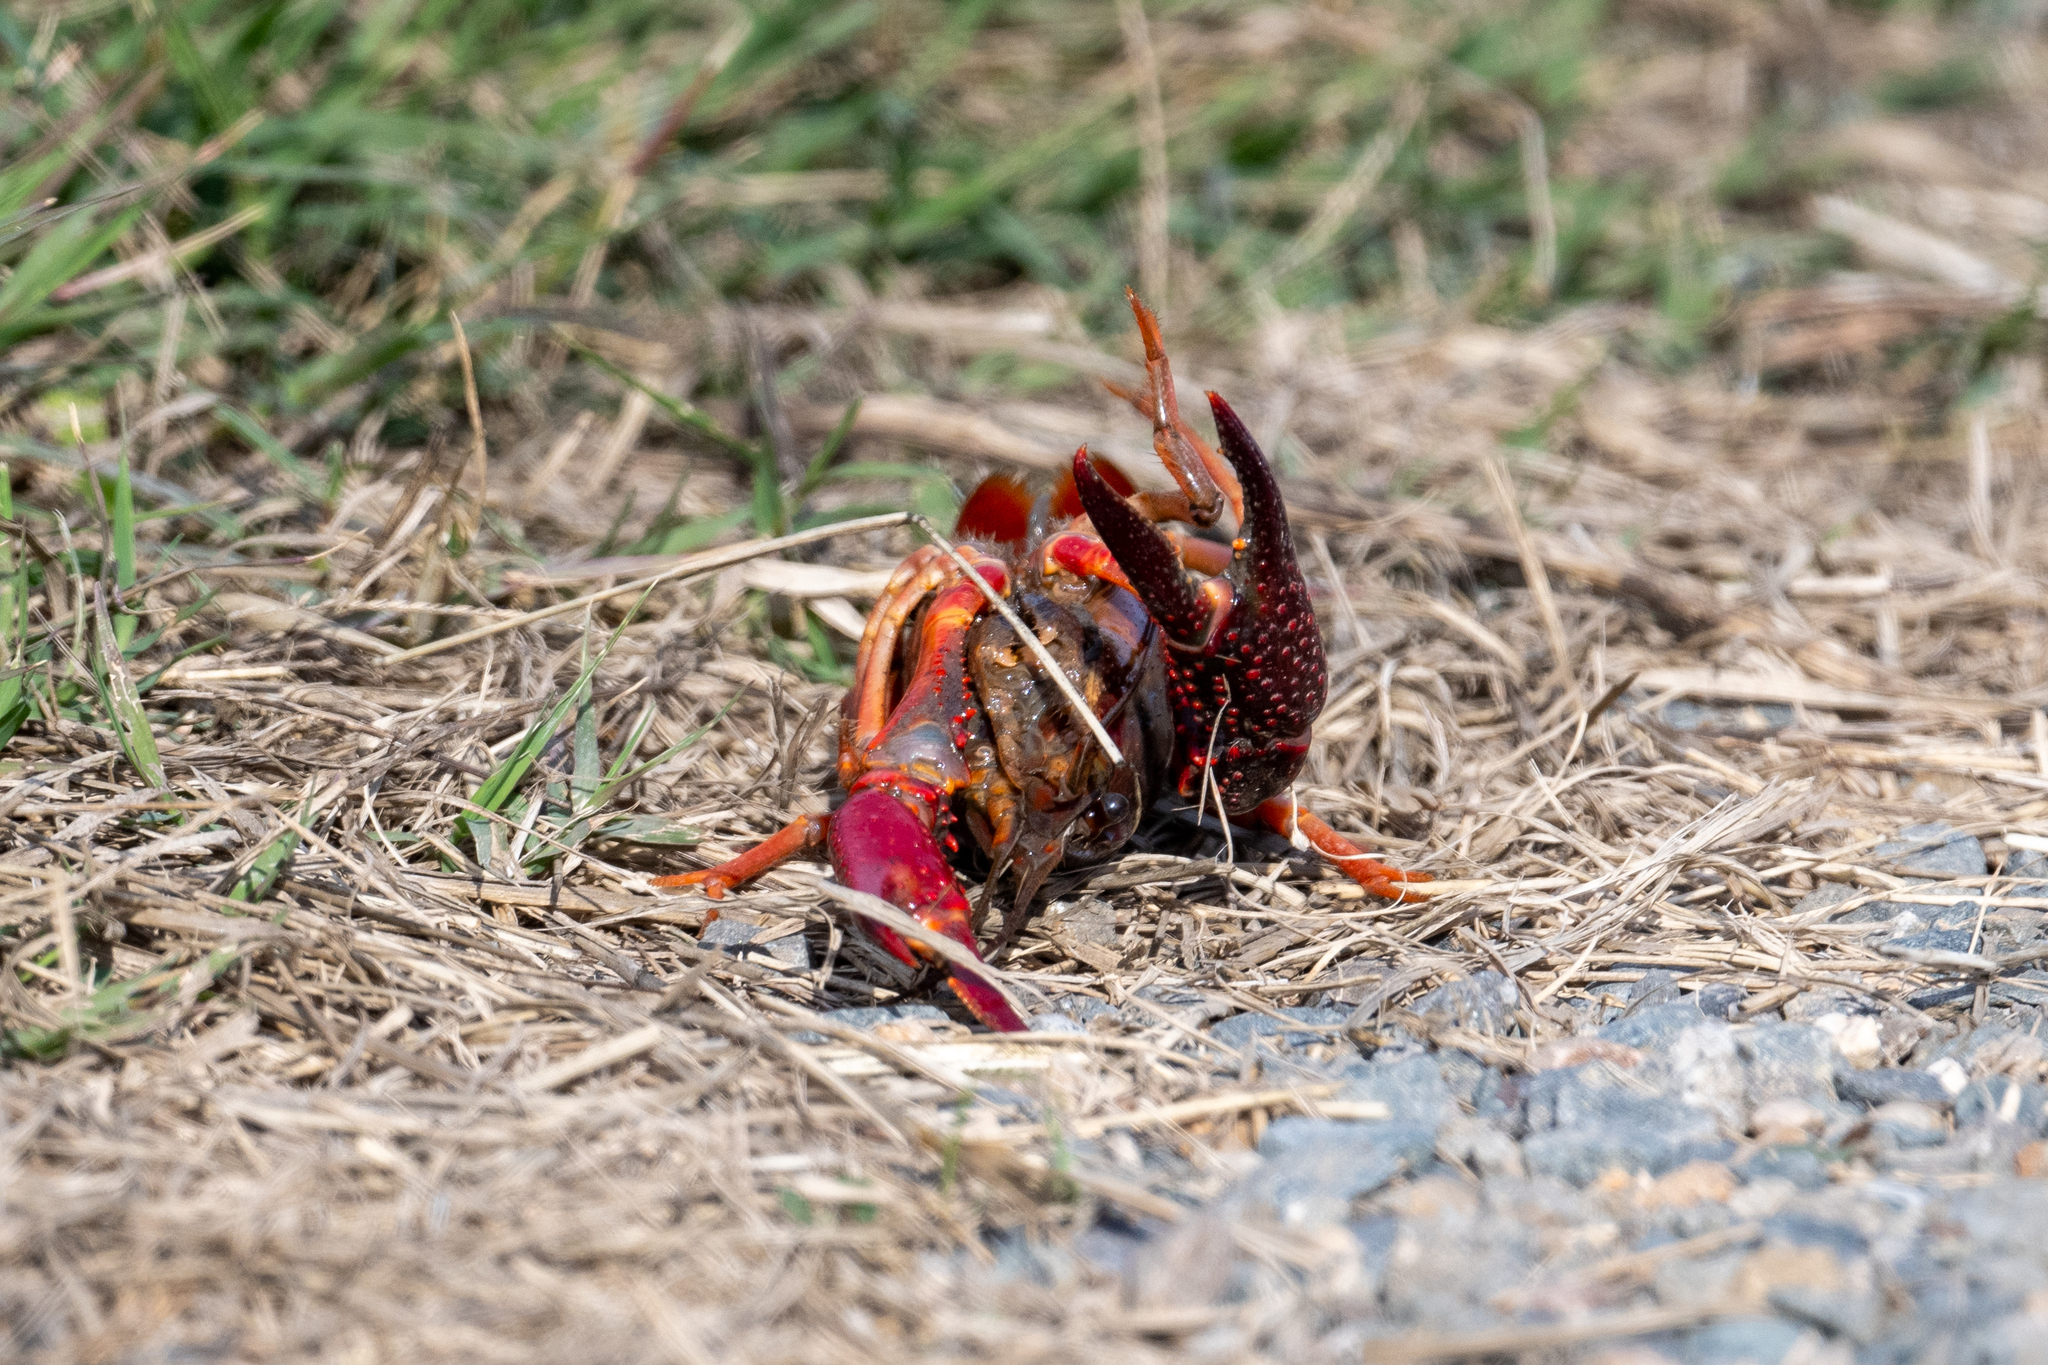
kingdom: Animalia
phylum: Arthropoda
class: Malacostraca
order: Decapoda
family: Cambaridae
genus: Procambarus
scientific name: Procambarus clarkii
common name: Red swamp crayfish
